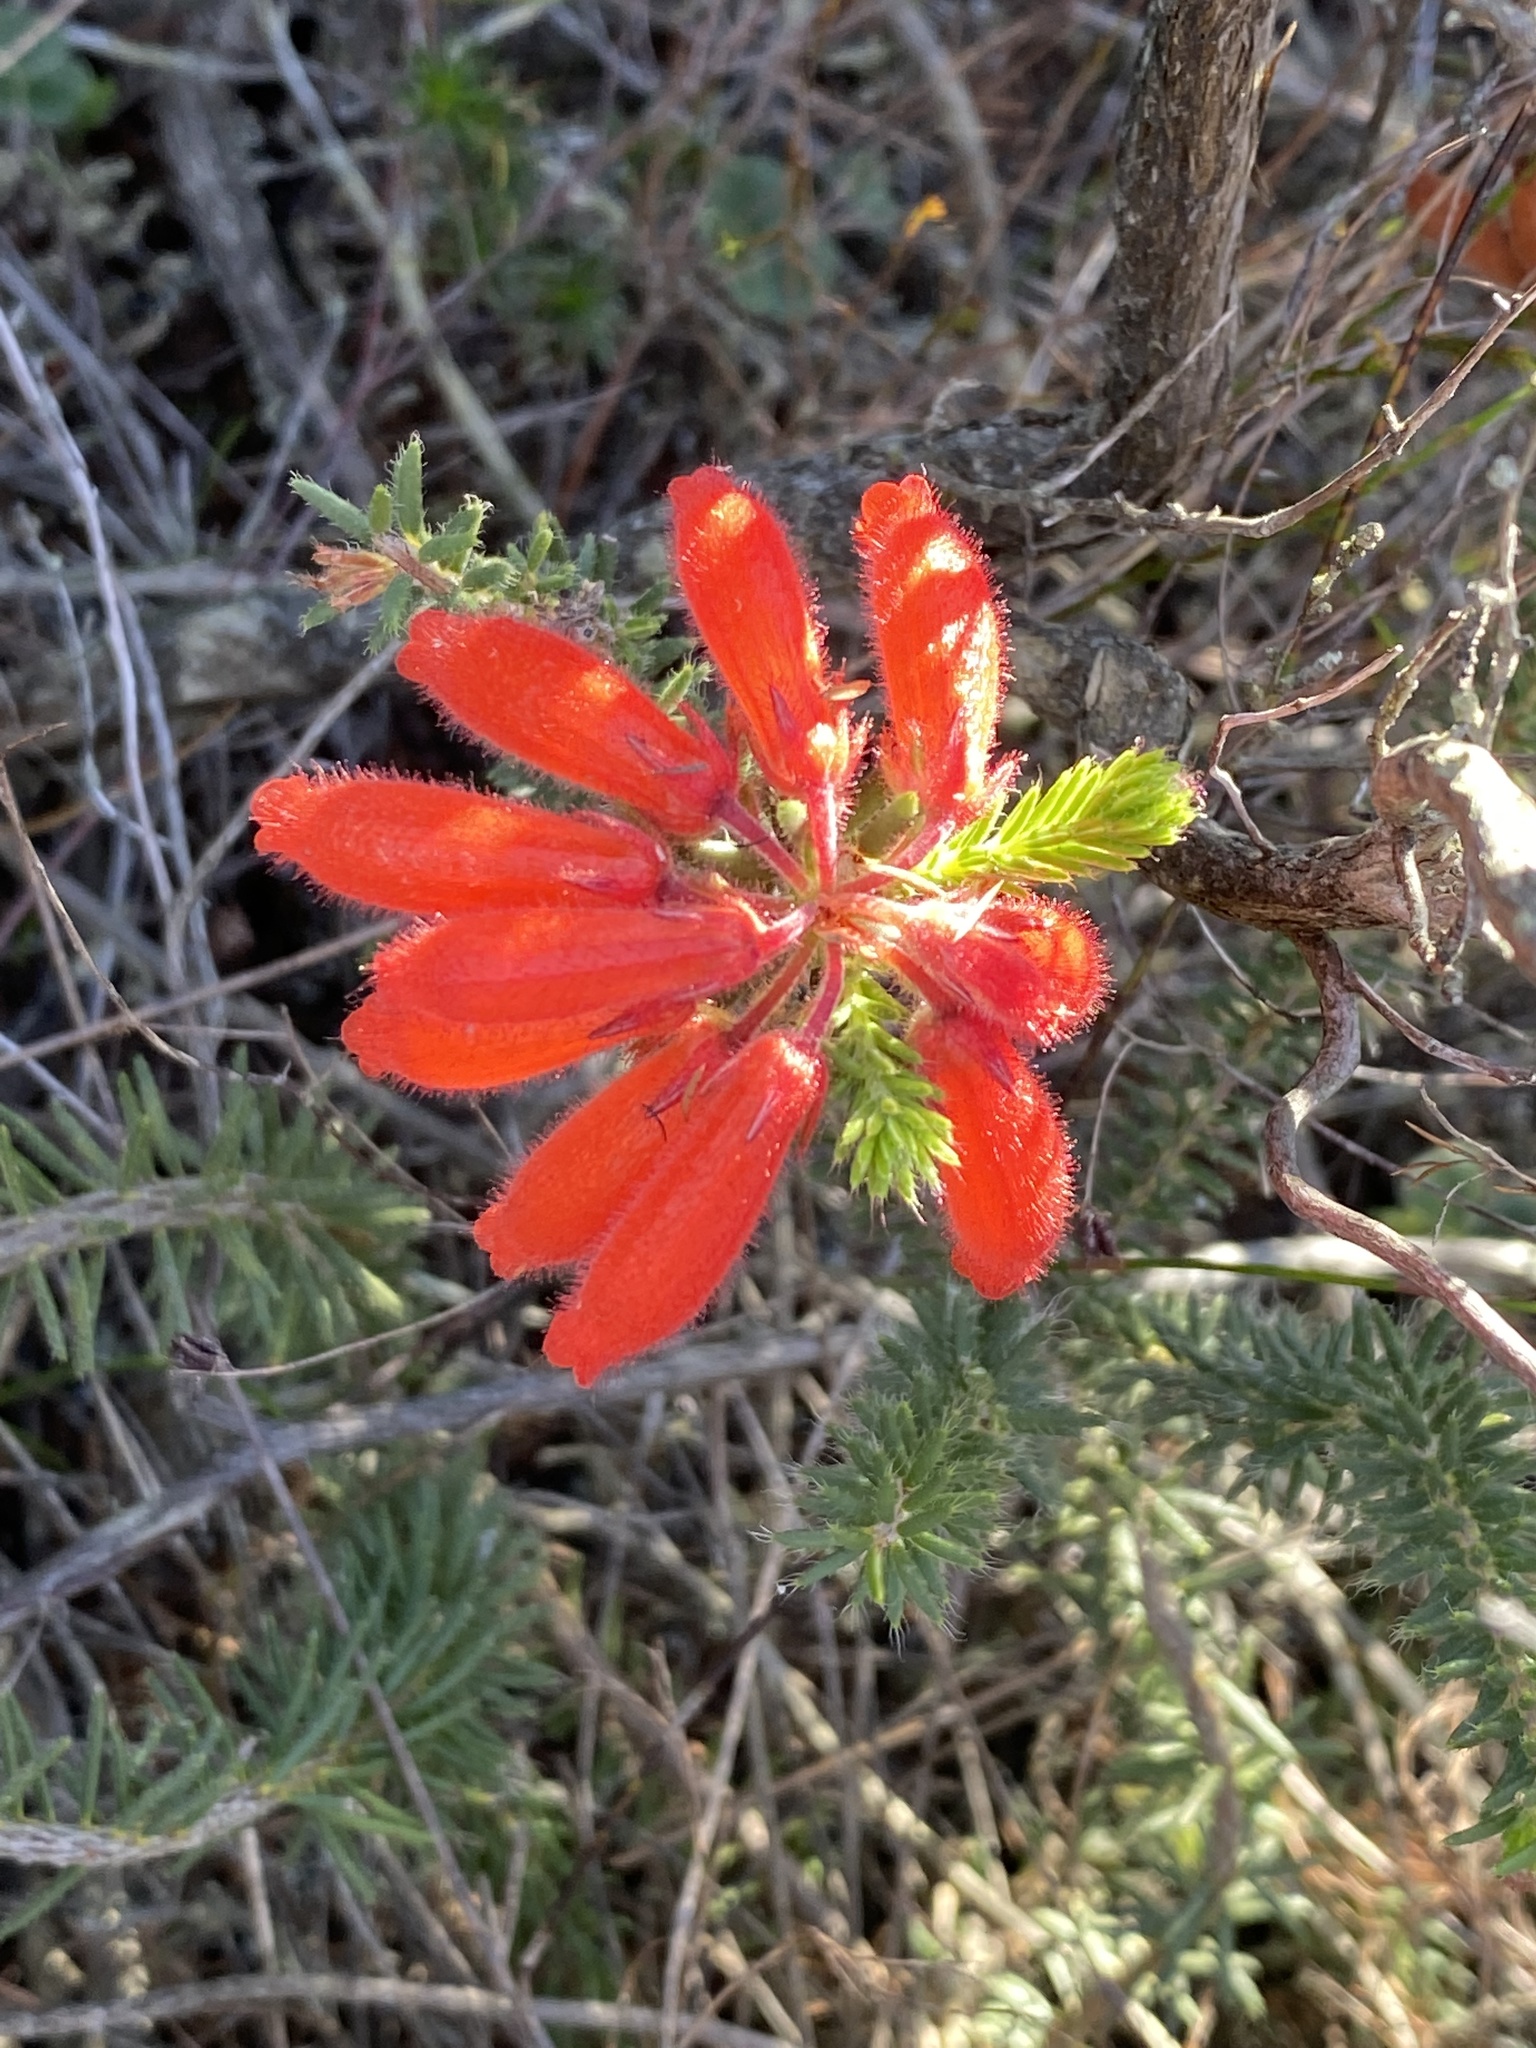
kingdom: Plantae
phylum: Tracheophyta
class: Magnoliopsida
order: Ericales
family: Ericaceae
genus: Erica
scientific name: Erica cerinthoides
